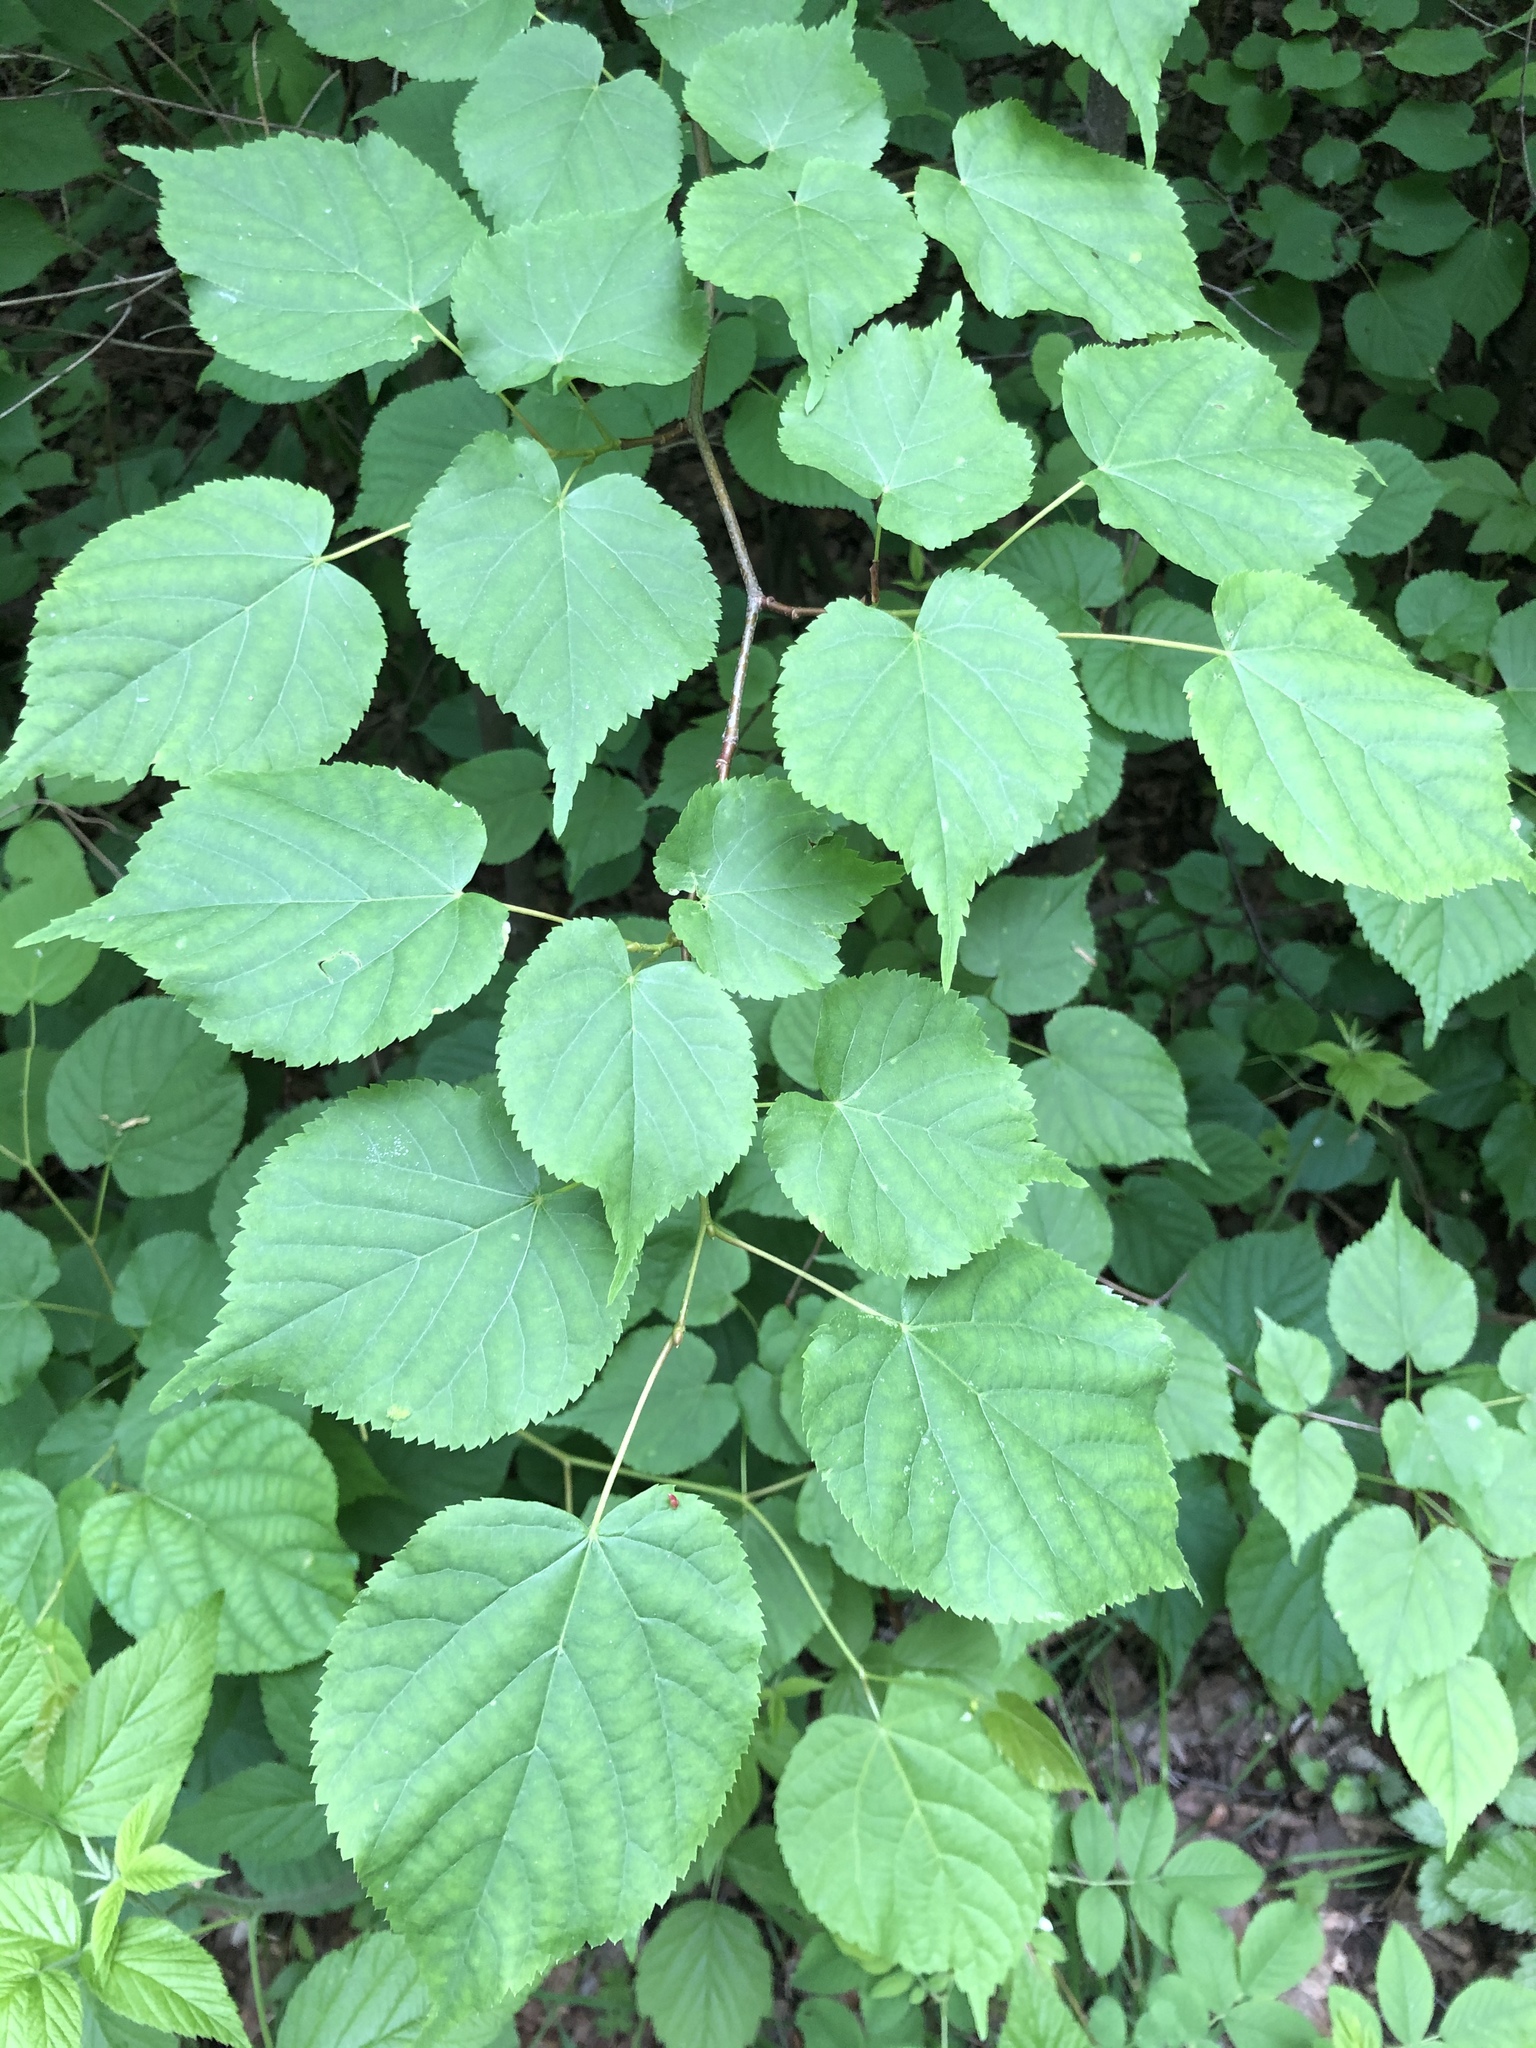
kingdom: Plantae
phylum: Tracheophyta
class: Magnoliopsida
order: Malvales
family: Malvaceae
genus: Tilia
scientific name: Tilia cordata
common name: Small-leaved lime
